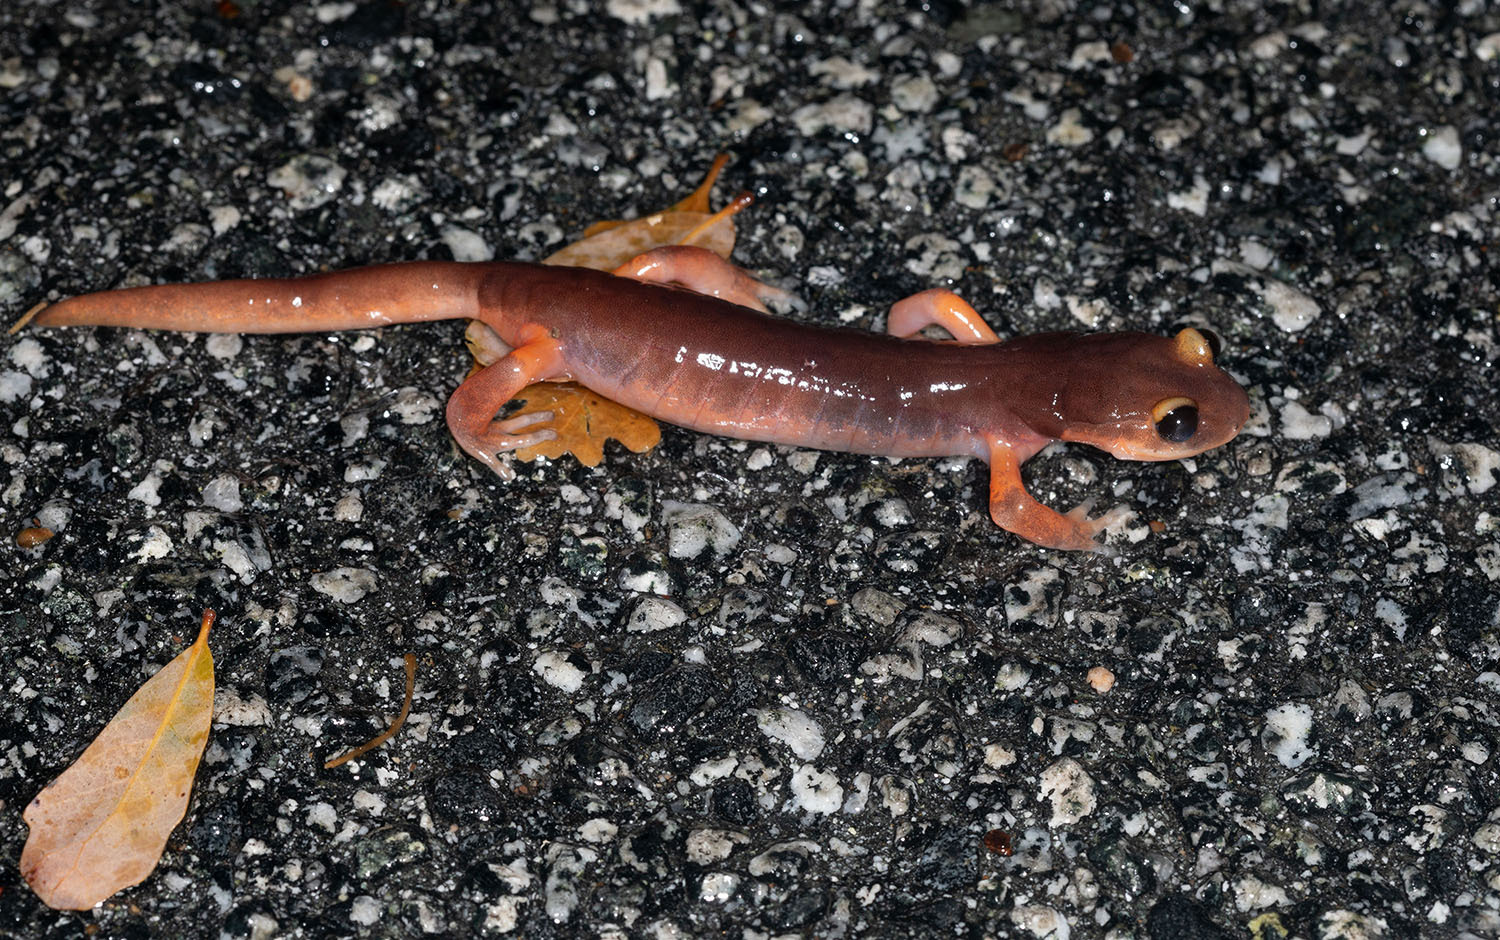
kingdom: Animalia
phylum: Chordata
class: Amphibia
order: Caudata
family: Plethodontidae
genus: Ensatina
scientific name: Ensatina eschscholtzii
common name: Ensatina
